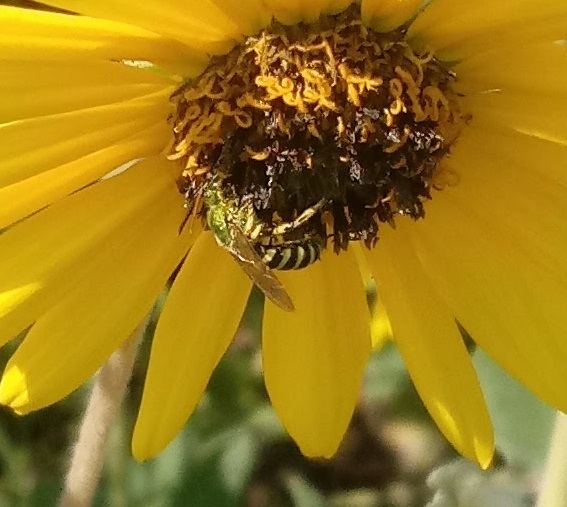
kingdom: Animalia
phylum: Arthropoda
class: Insecta
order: Hymenoptera
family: Halictidae
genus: Agapostemon
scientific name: Agapostemon virescens
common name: Bicolored striped sweat bee
